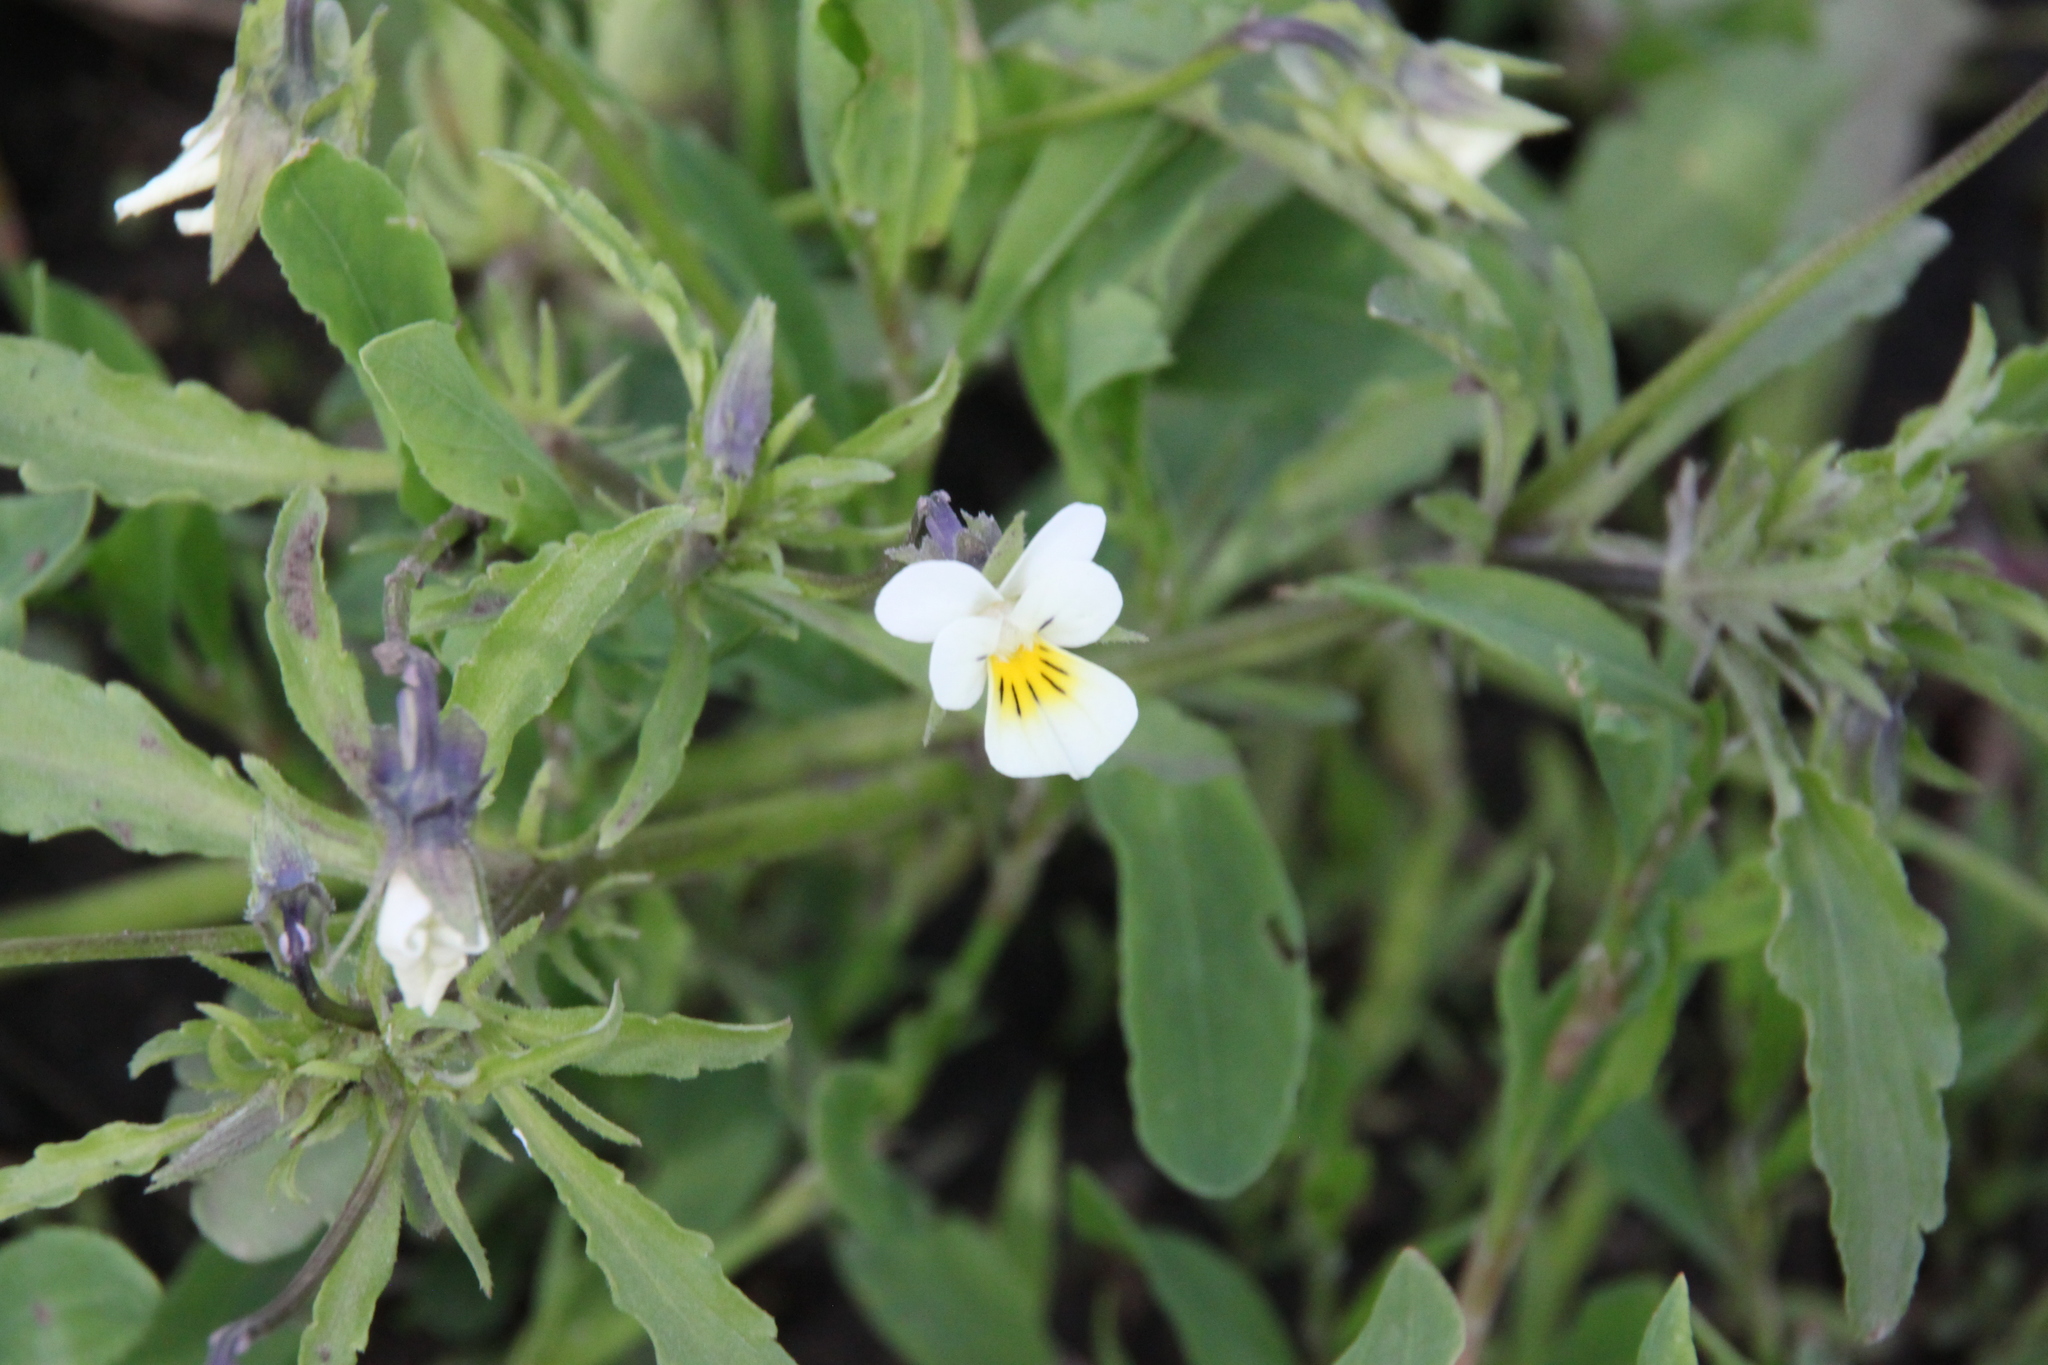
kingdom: Plantae
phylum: Tracheophyta
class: Magnoliopsida
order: Malpighiales
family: Violaceae
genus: Viola
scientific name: Viola arvensis
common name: Field pansy
